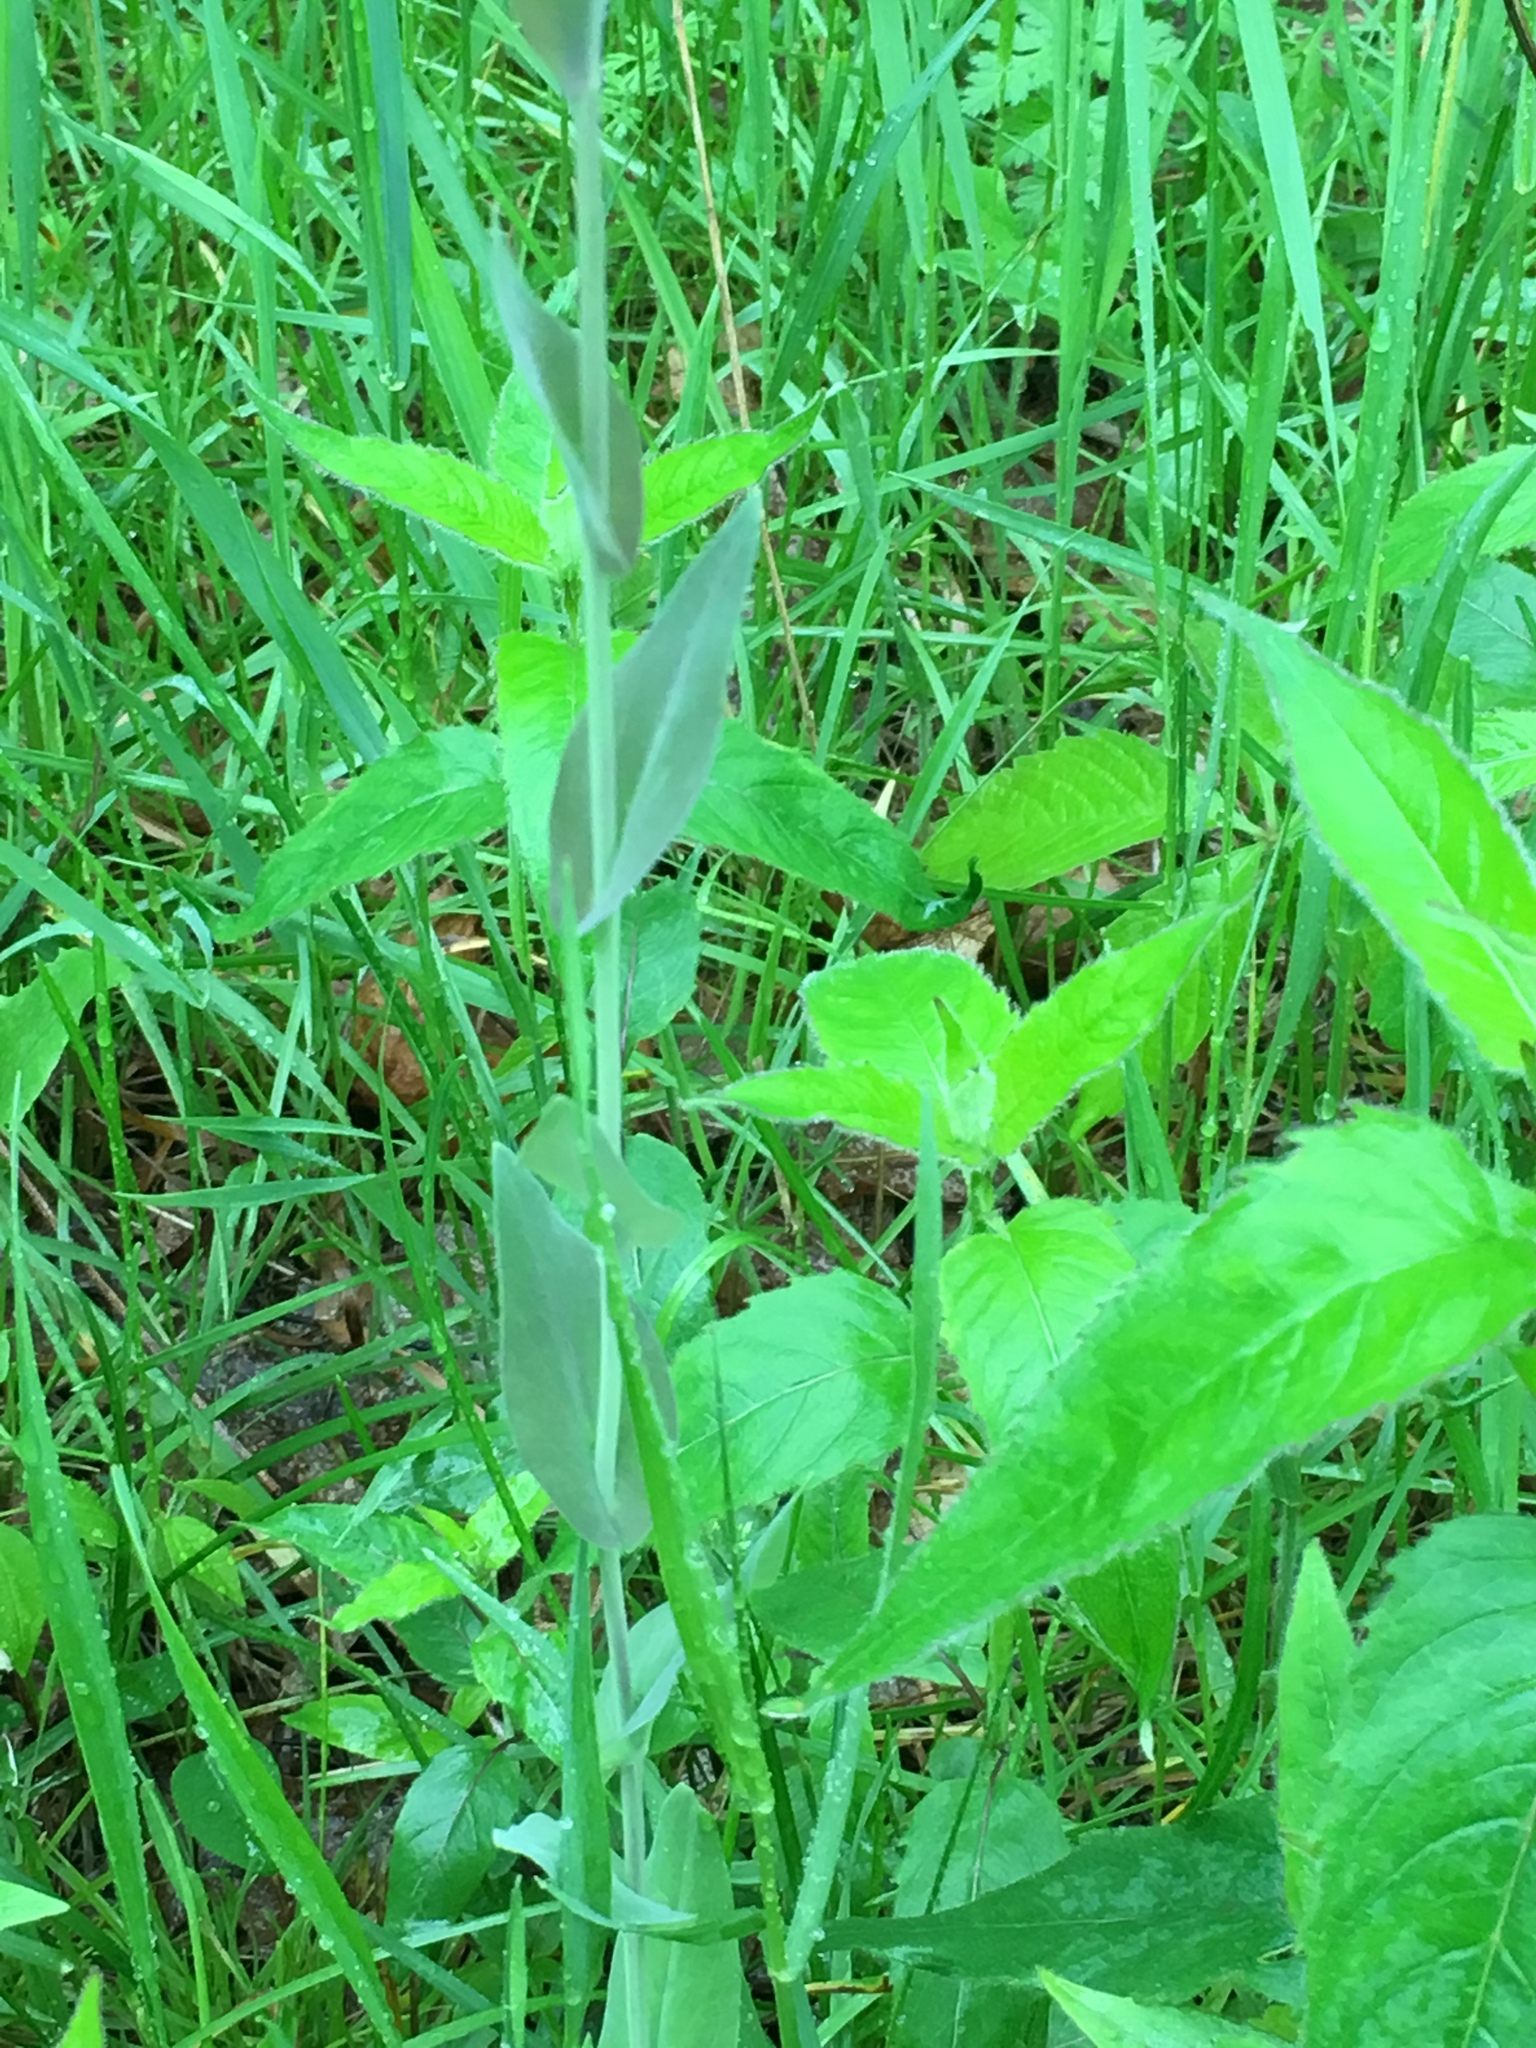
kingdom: Plantae
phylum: Tracheophyta
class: Magnoliopsida
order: Brassicales
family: Brassicaceae
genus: Turritis
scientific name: Turritis glabra
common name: Tower rockcress
